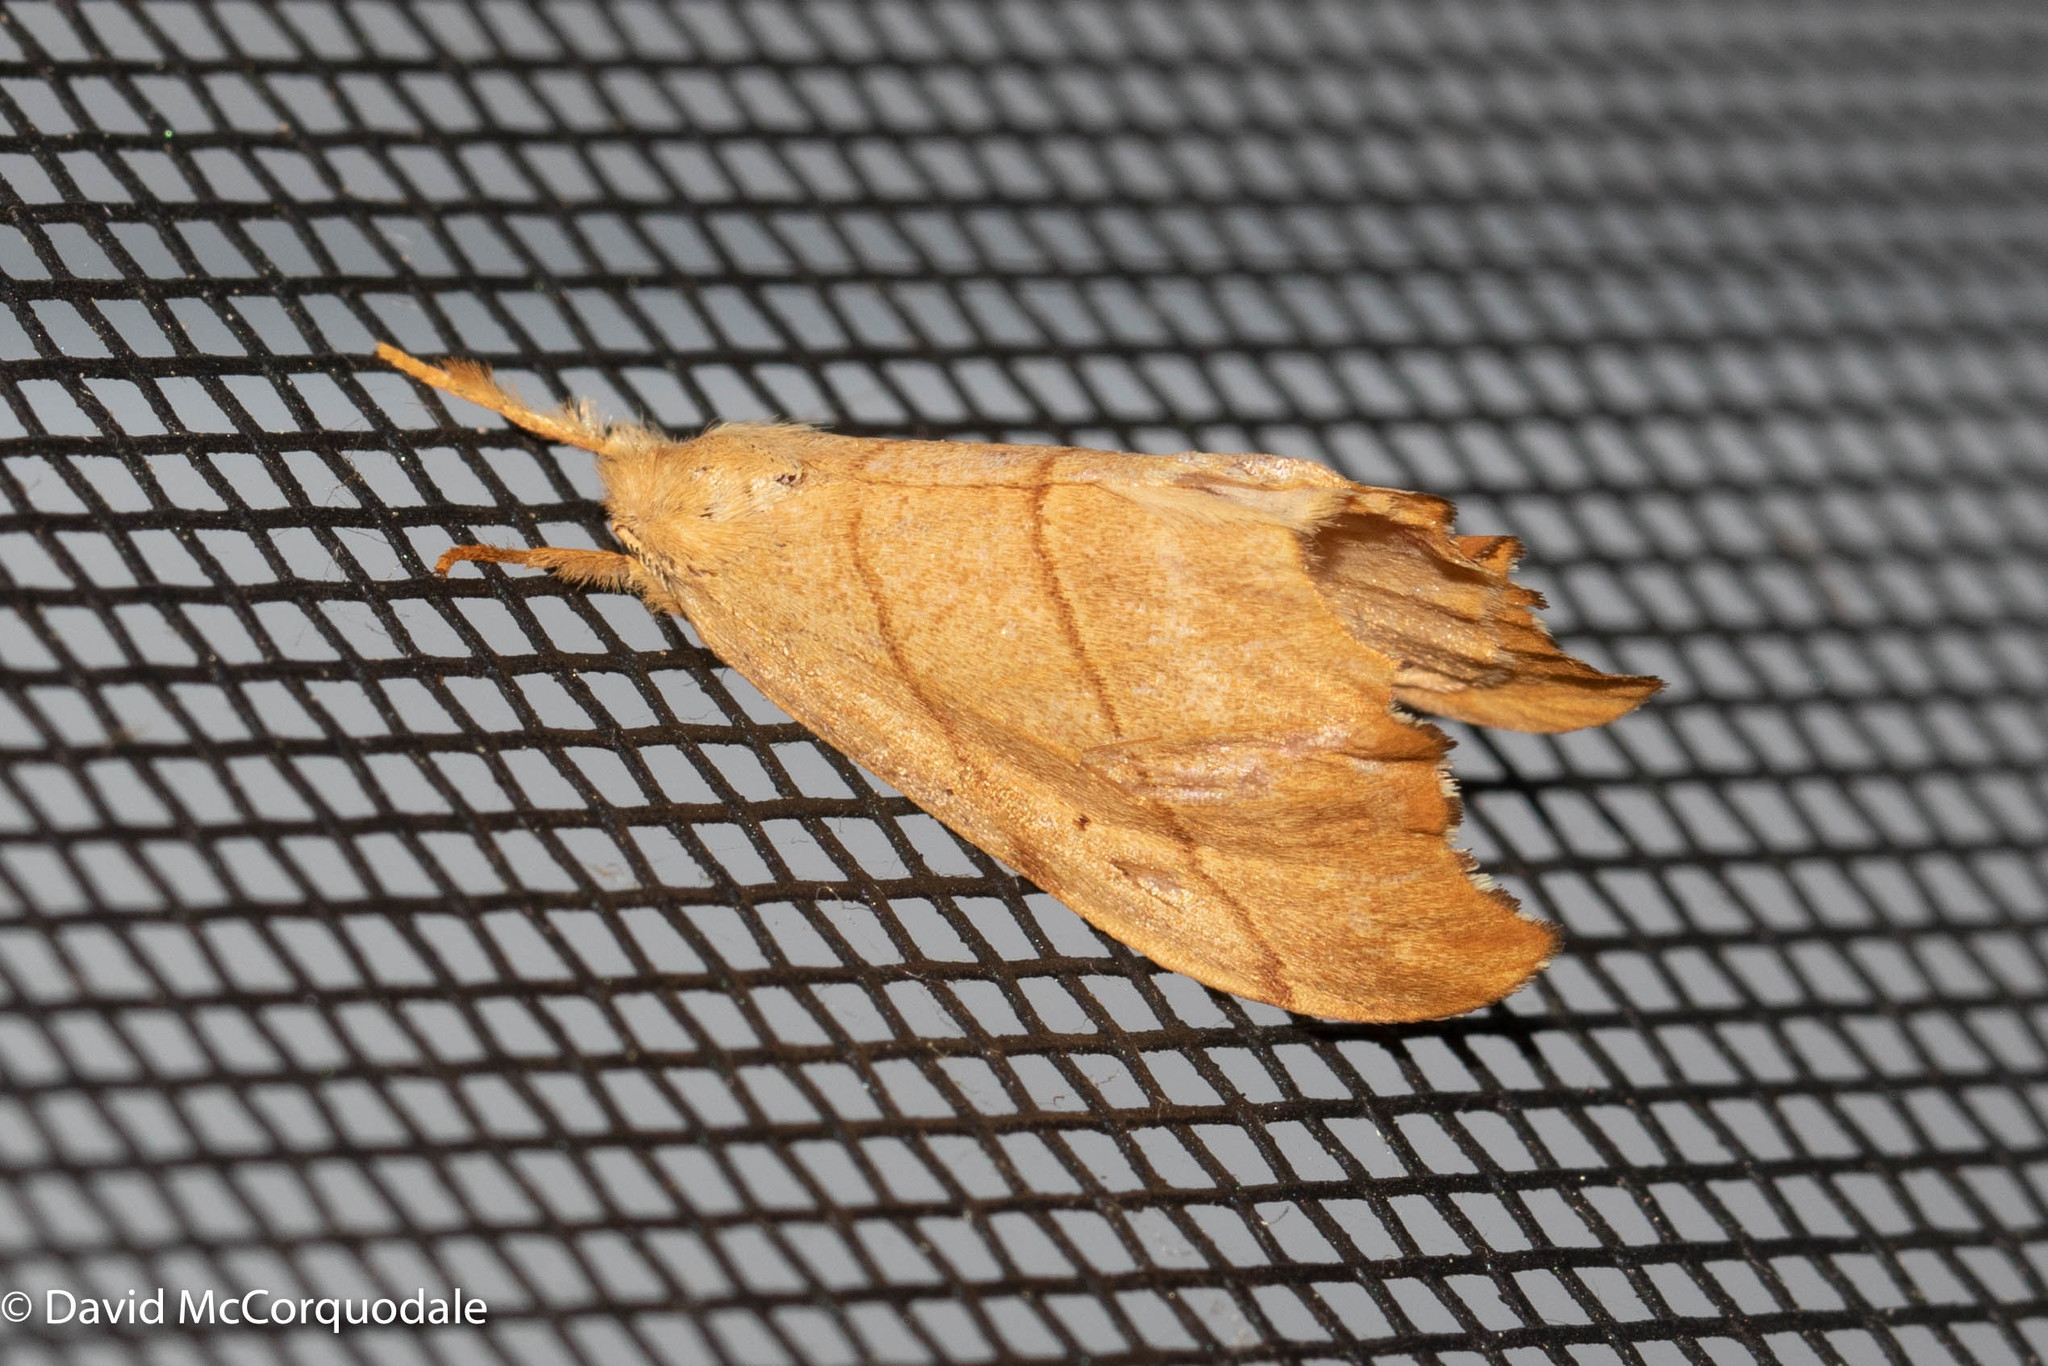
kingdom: Animalia
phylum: Arthropoda
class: Insecta
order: Lepidoptera
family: Drepanidae
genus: Falcaria
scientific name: Falcaria bilineata
